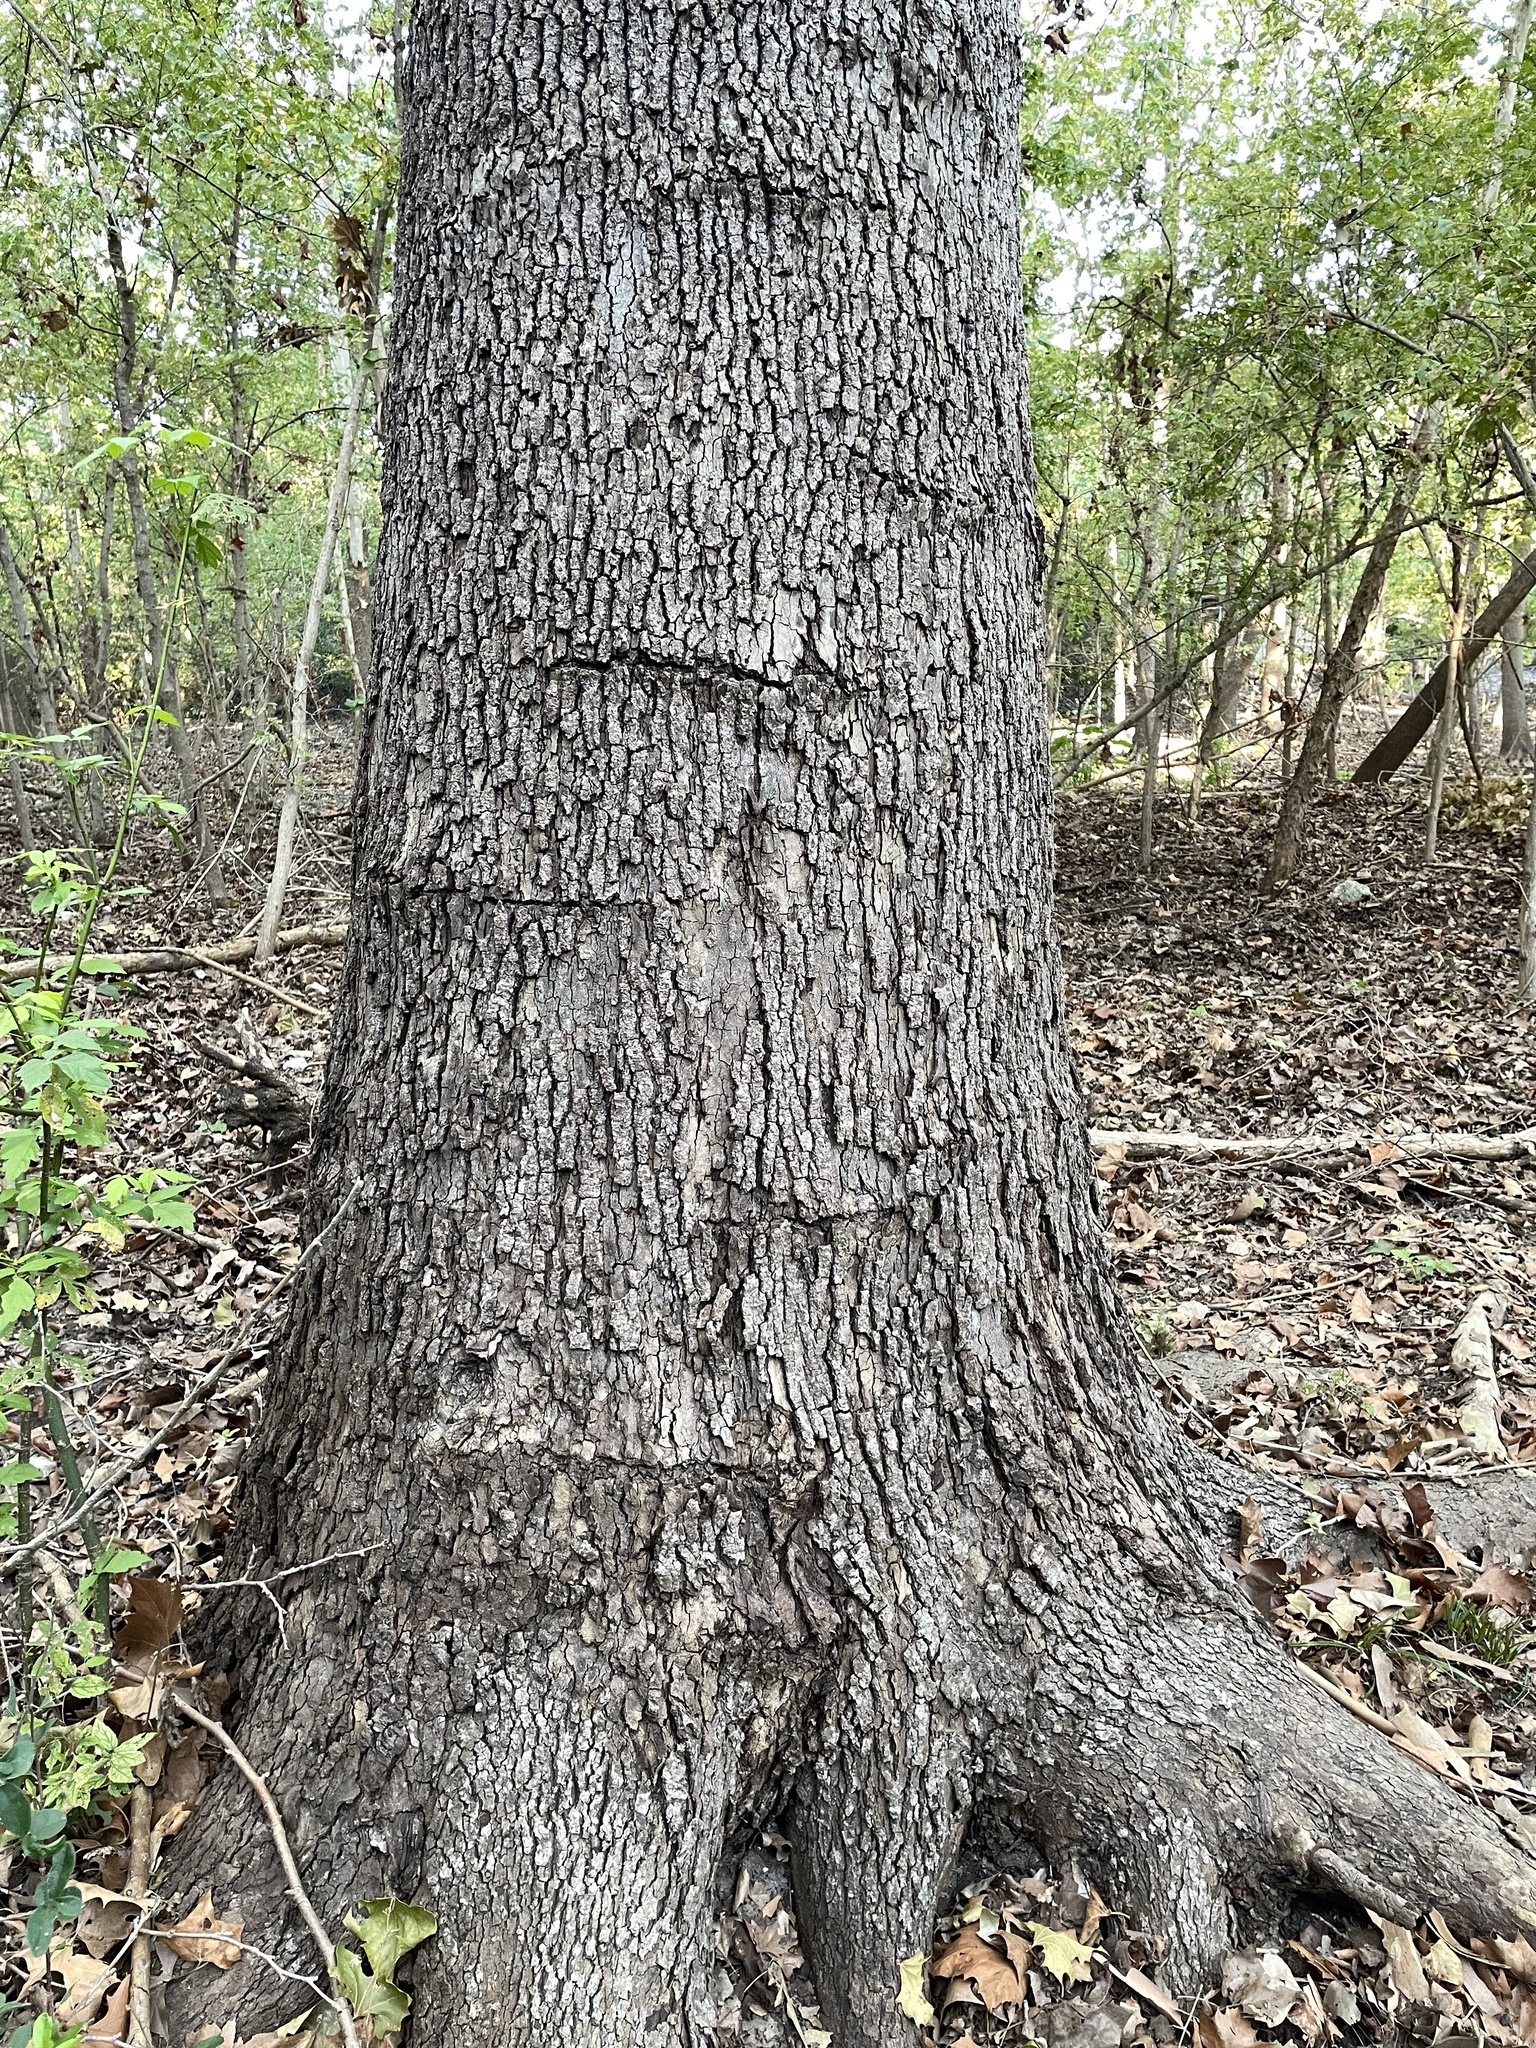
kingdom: Plantae
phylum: Tracheophyta
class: Magnoliopsida
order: Proteales
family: Platanaceae
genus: Platanus
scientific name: Platanus occidentalis
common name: American sycamore
